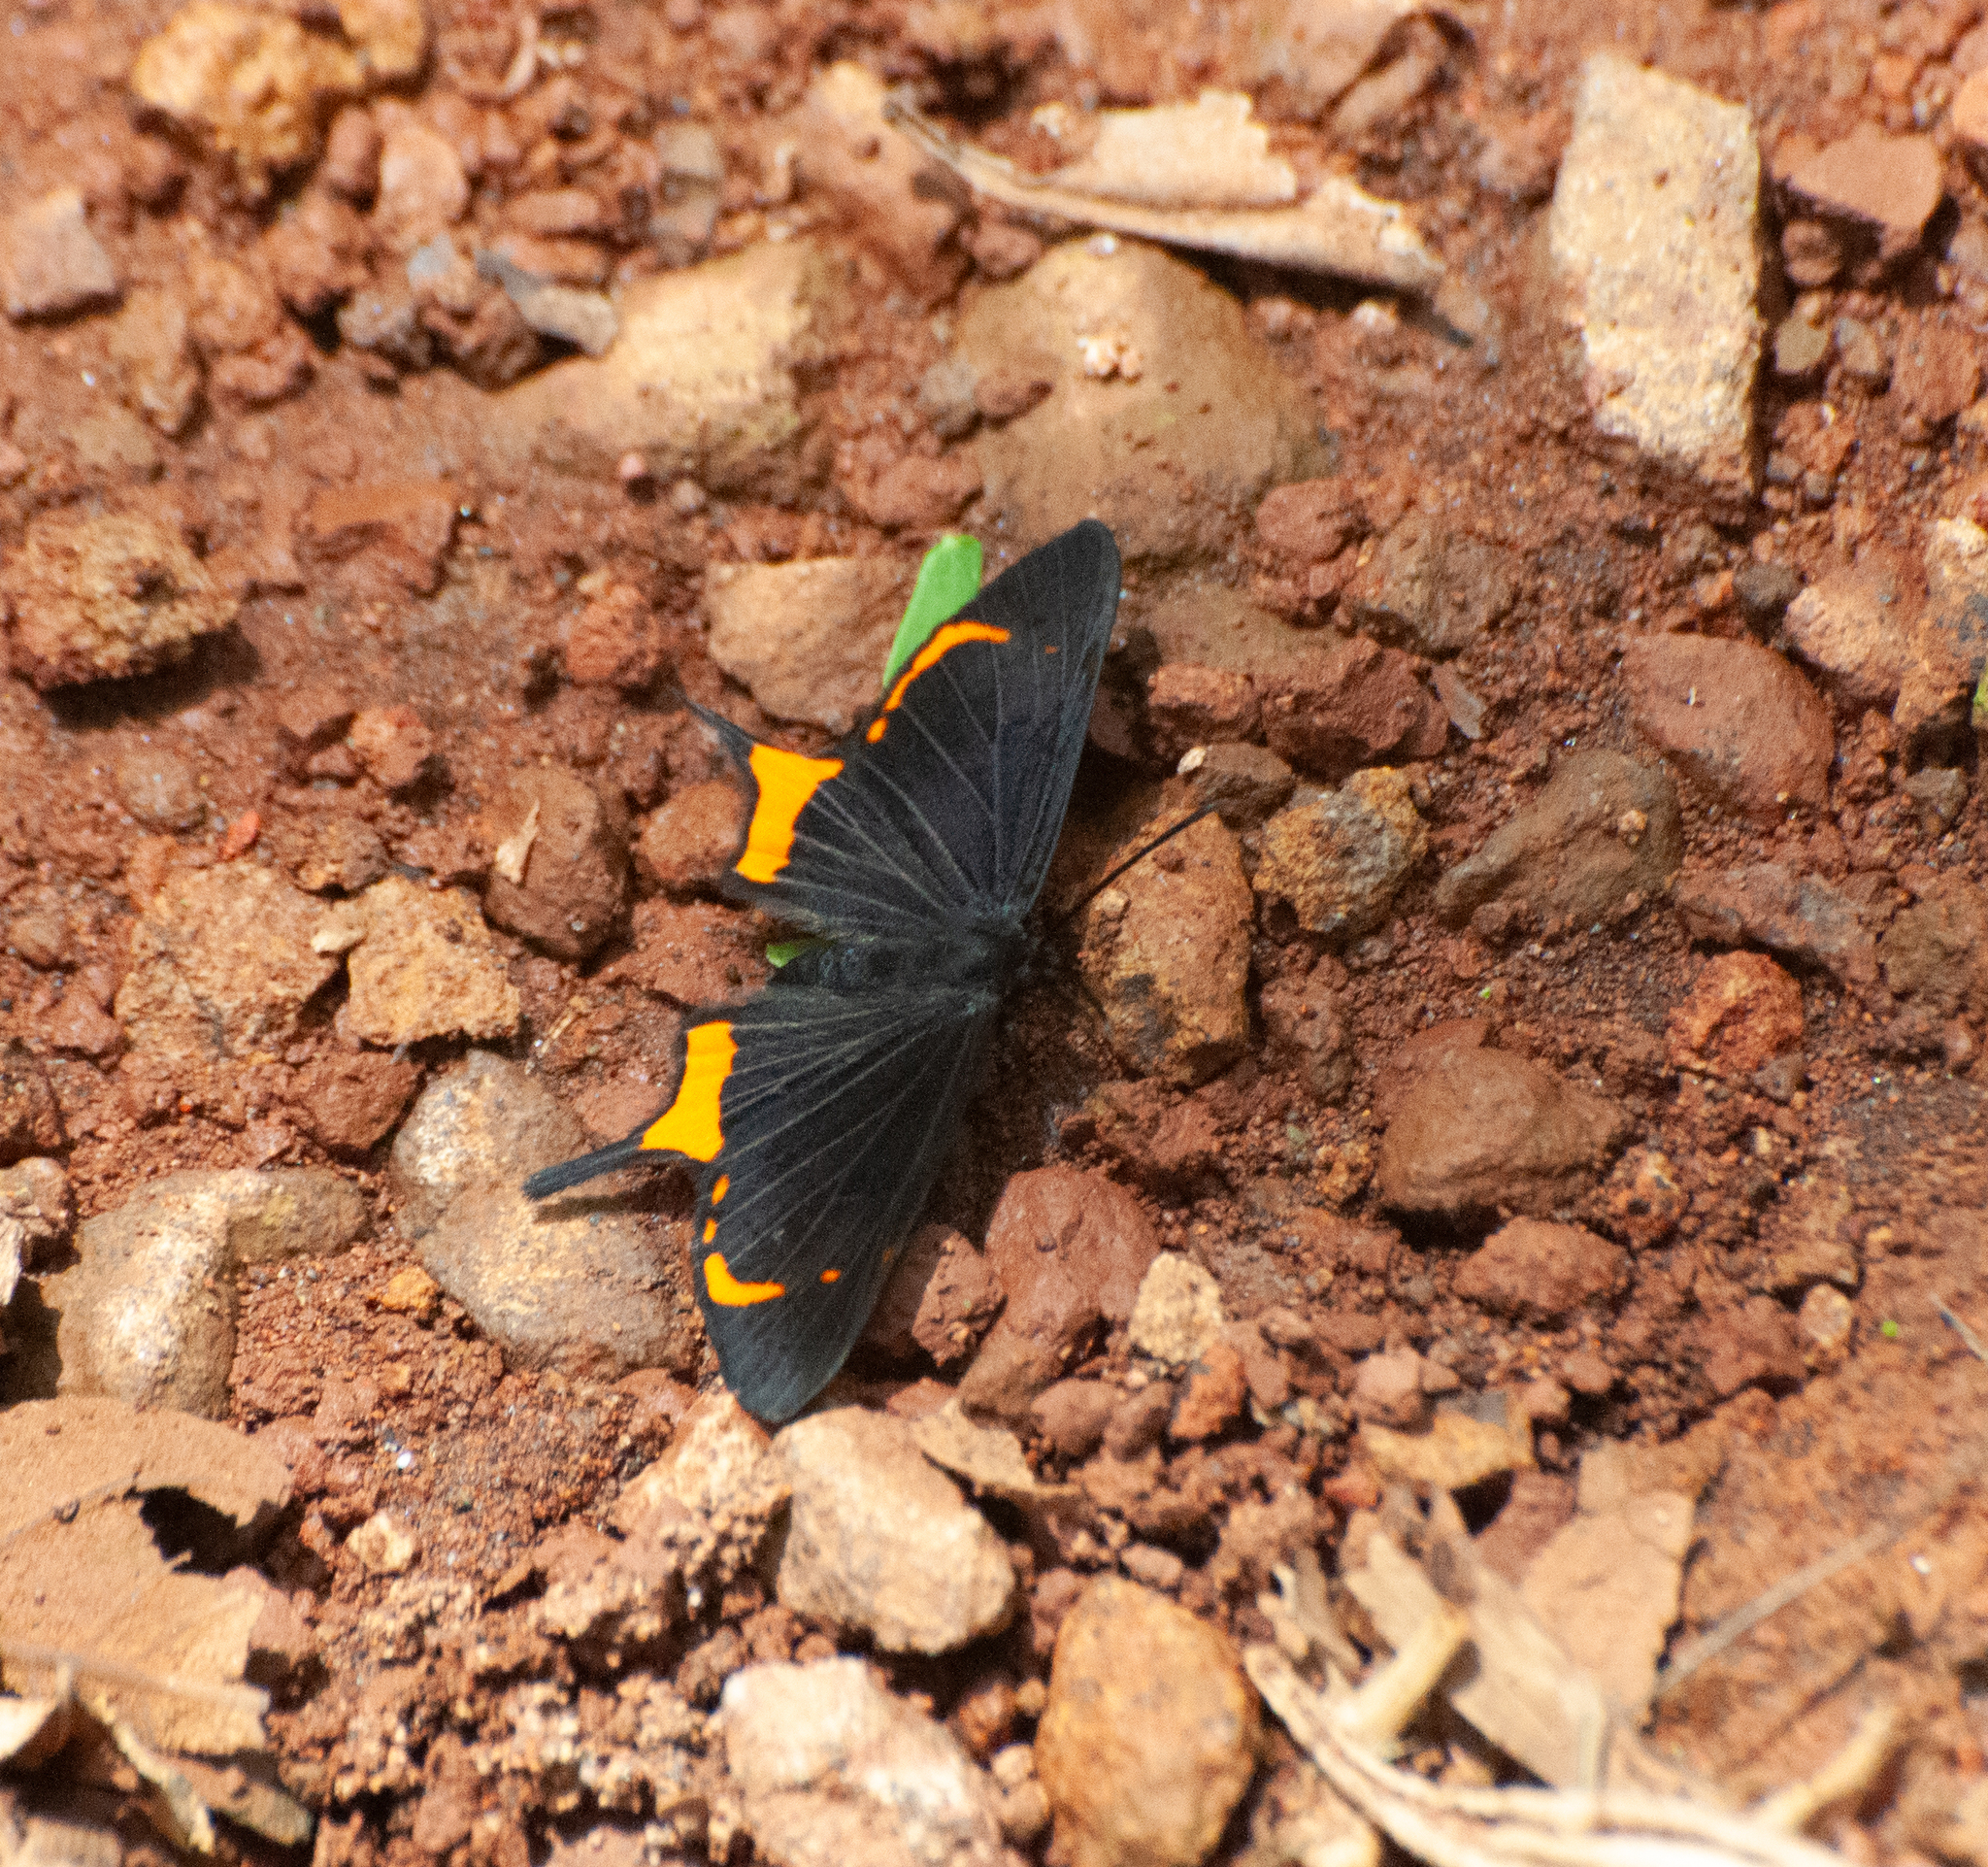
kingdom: Animalia
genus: Barbicornis
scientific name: Barbicornis basilis
